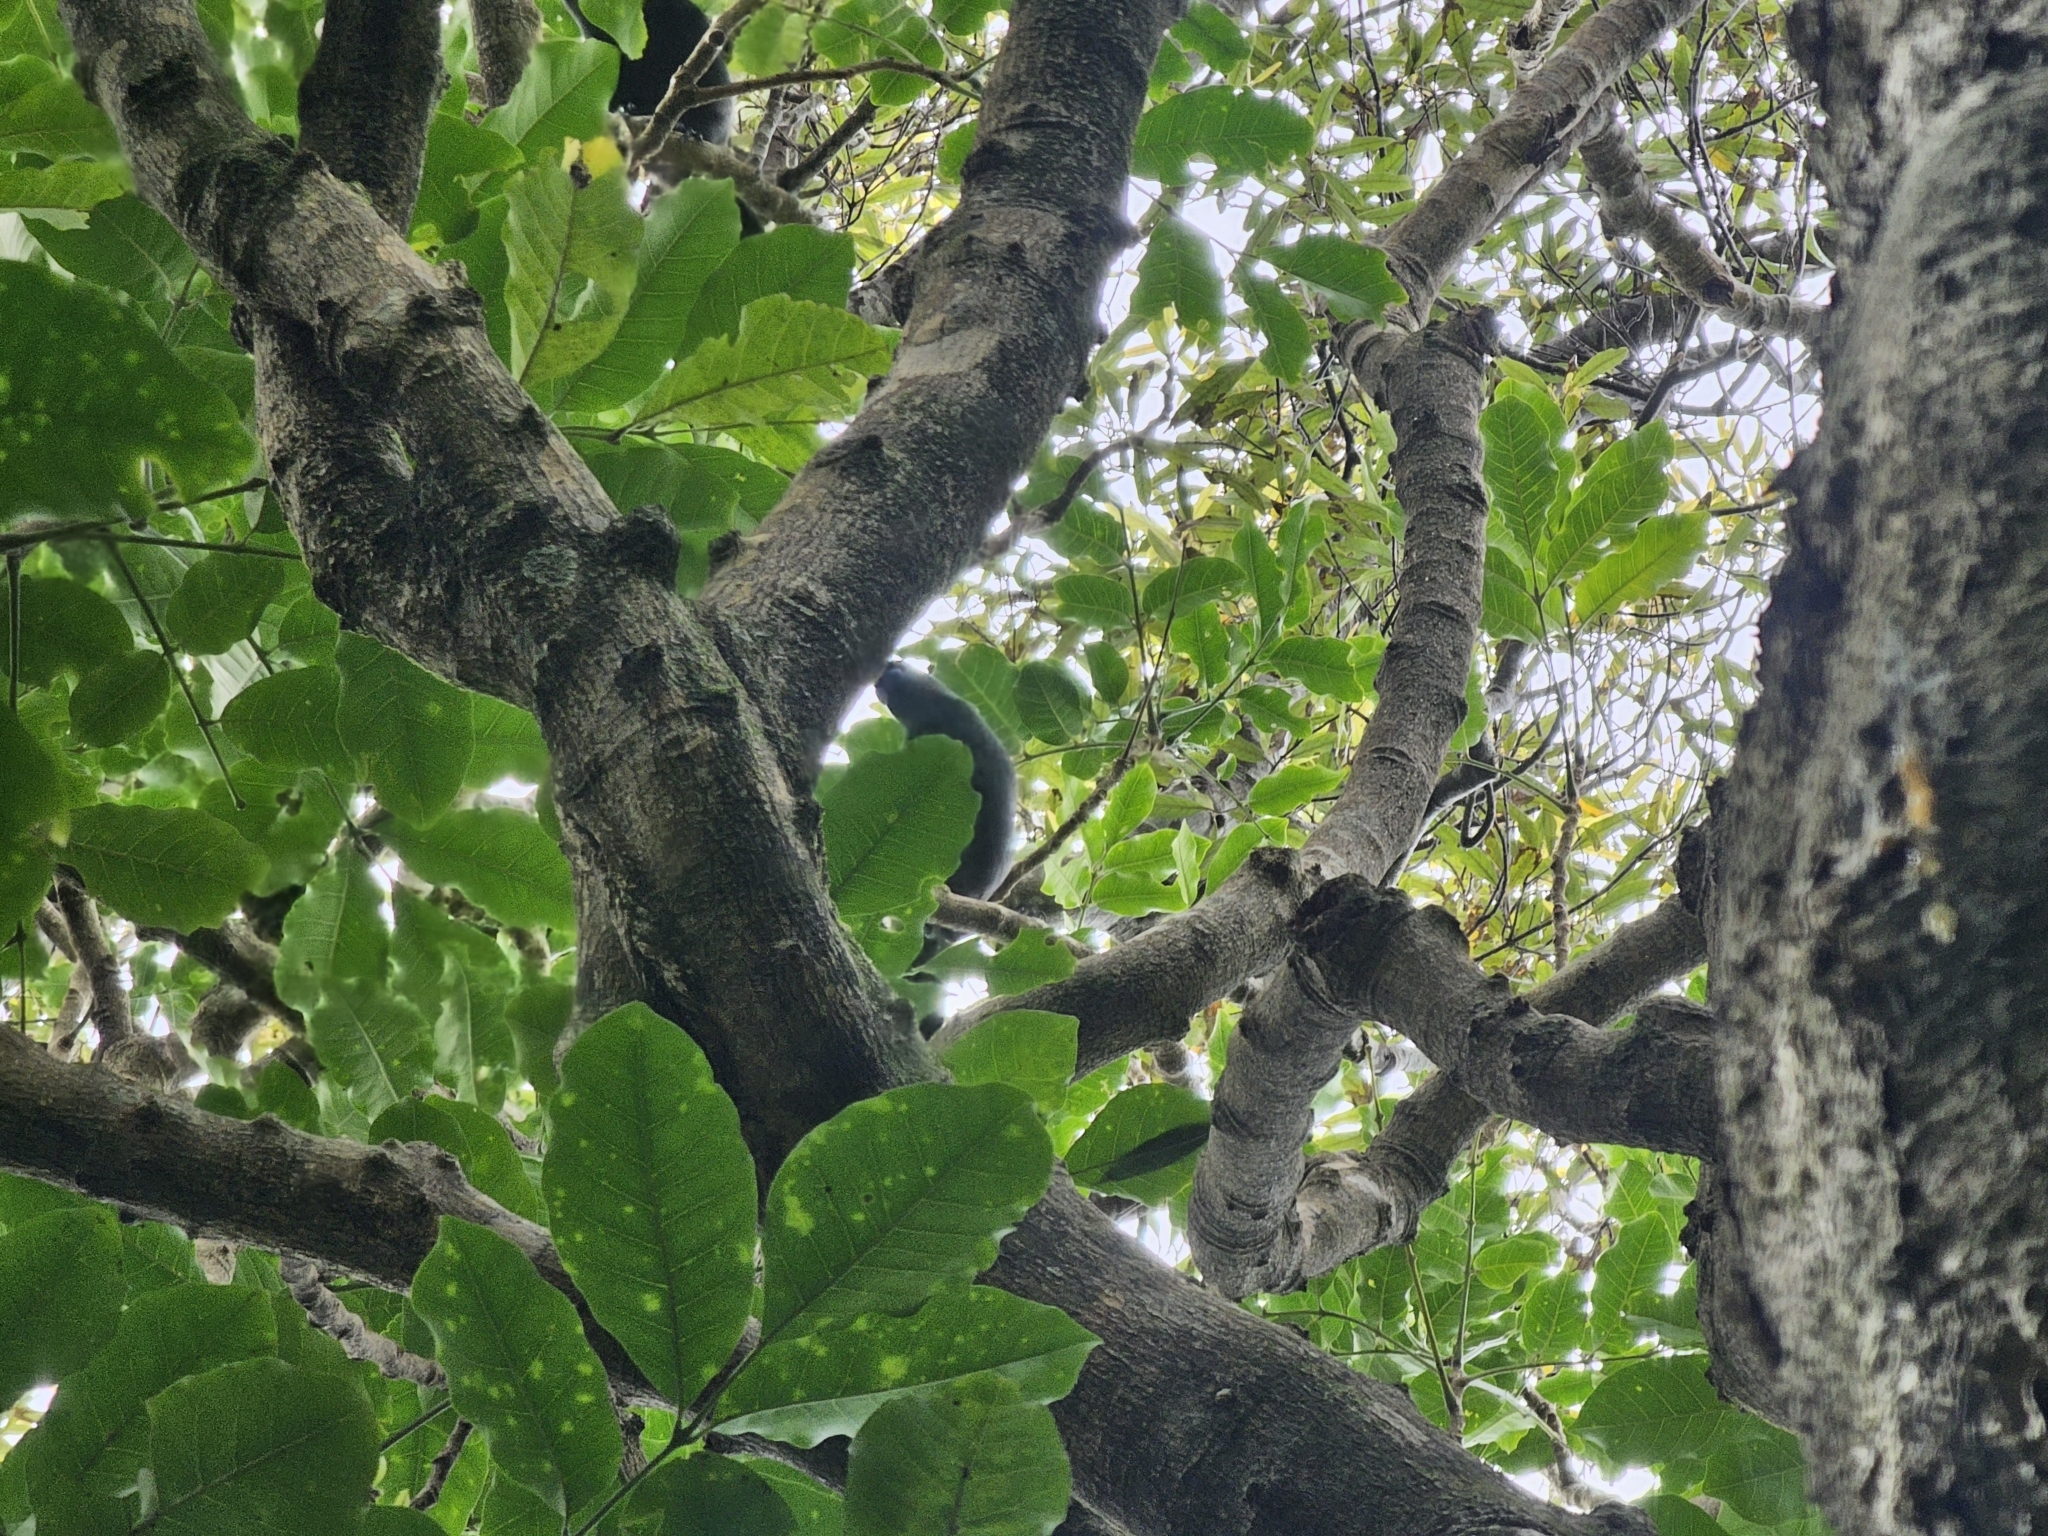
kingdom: Animalia
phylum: Chordata
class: Aves
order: Passeriformes
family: Callaeatidae
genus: Callaeas
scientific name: Callaeas cinereus
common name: South island kokako
